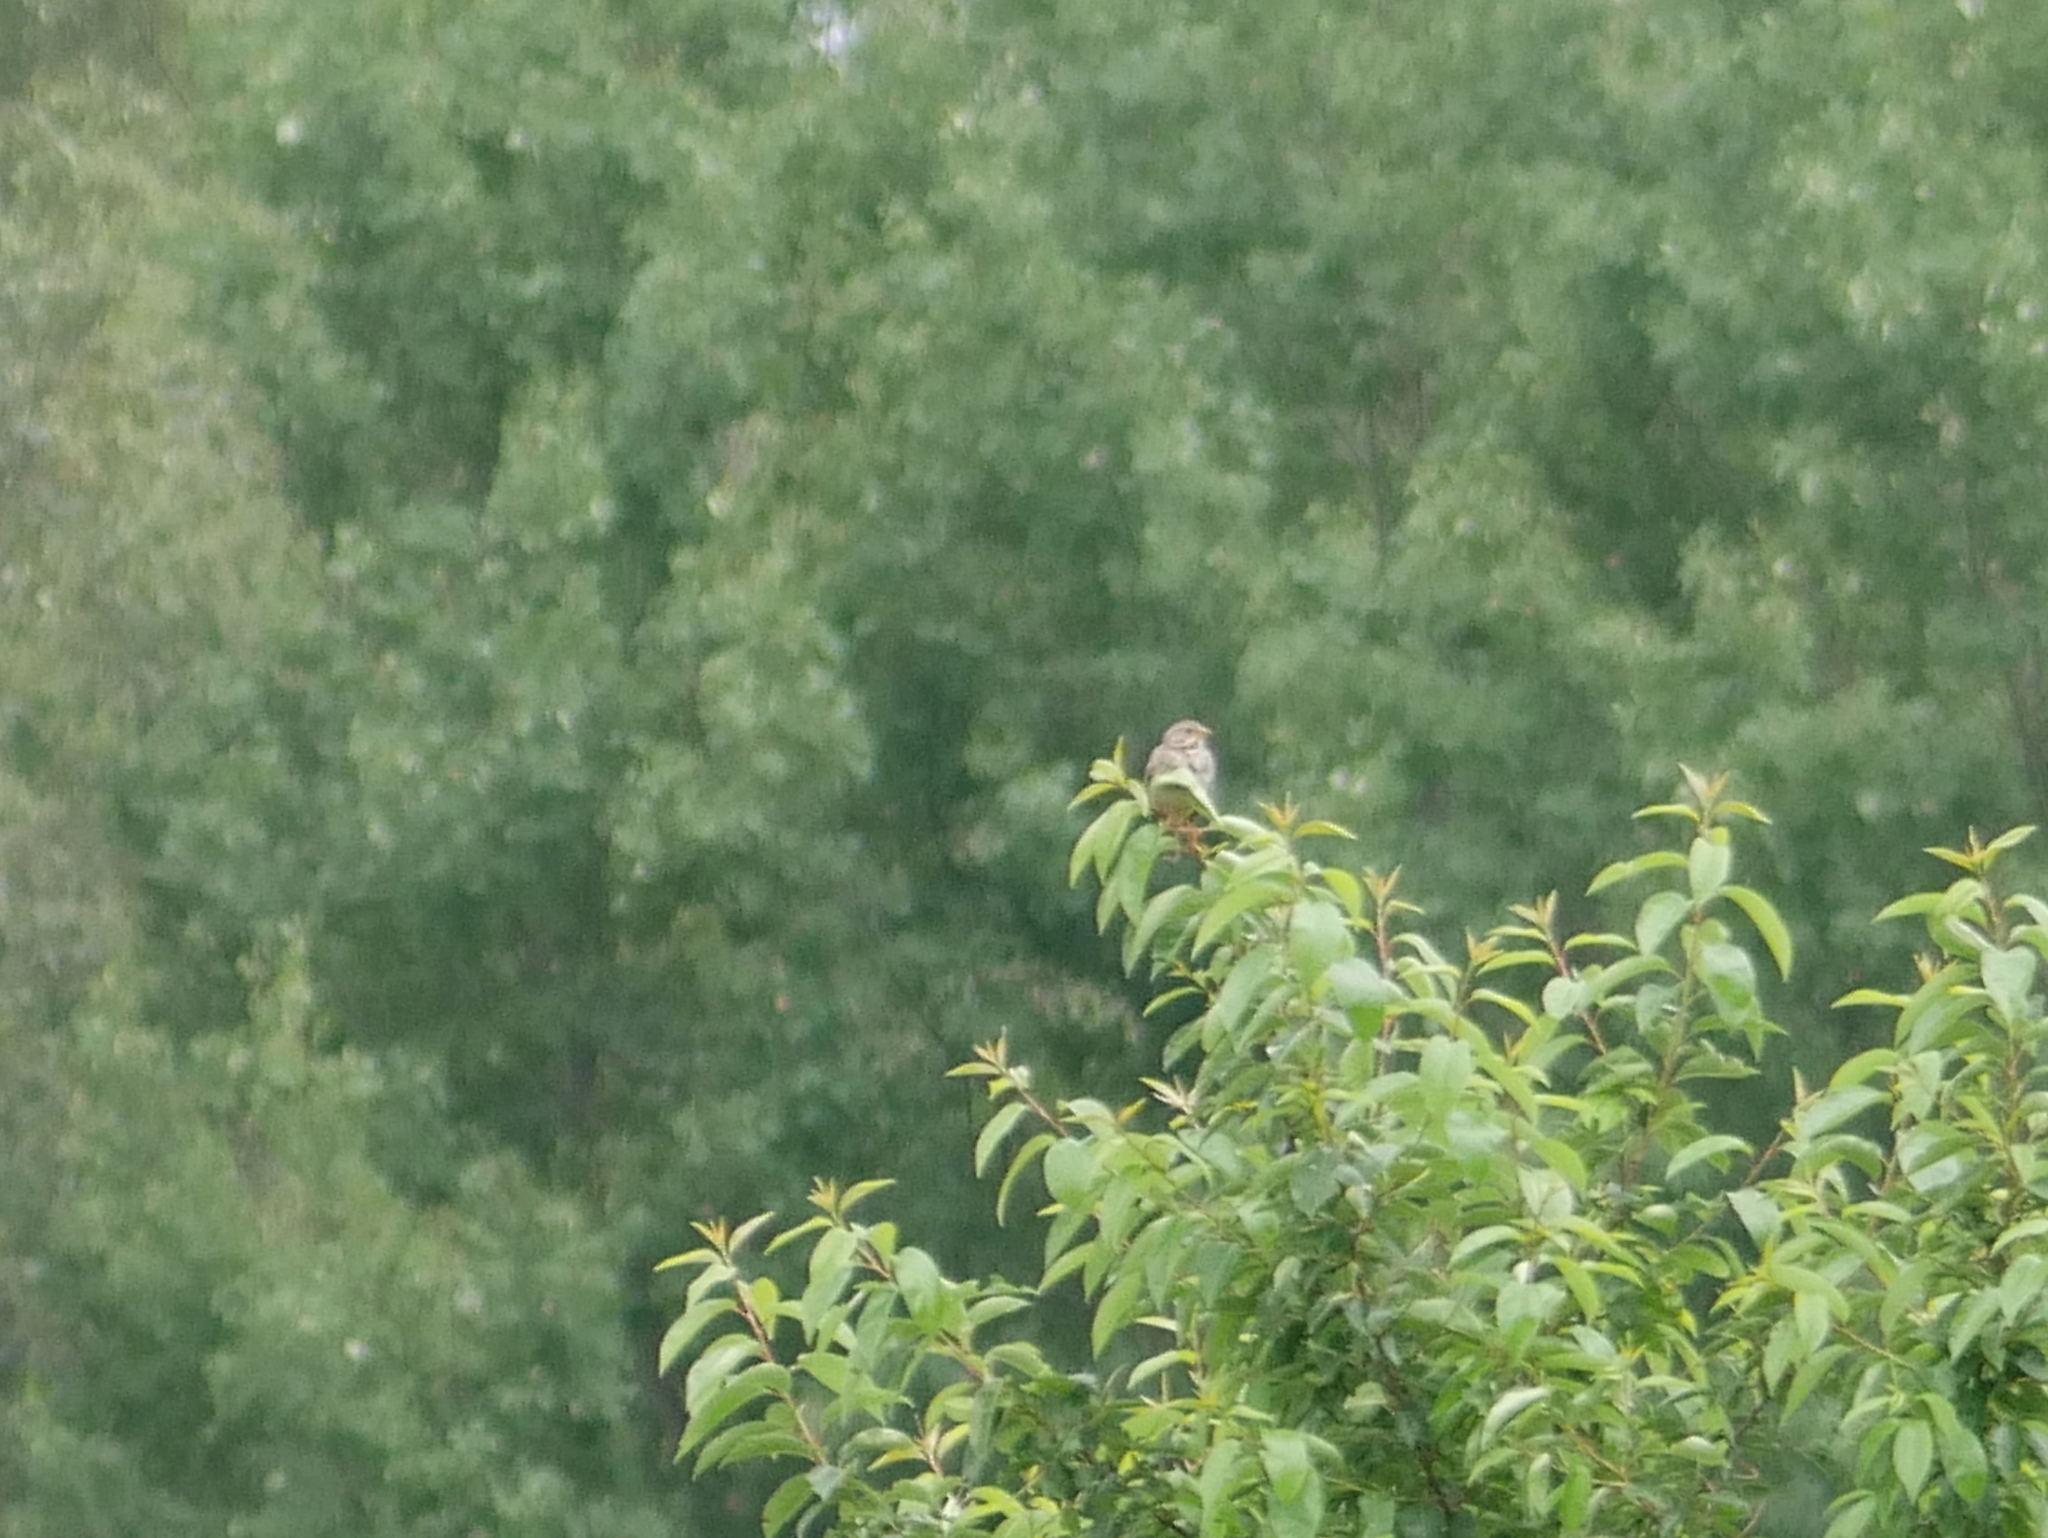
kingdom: Animalia
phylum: Chordata
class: Aves
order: Passeriformes
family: Emberizidae
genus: Emberiza
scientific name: Emberiza calandra
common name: Corn bunting
